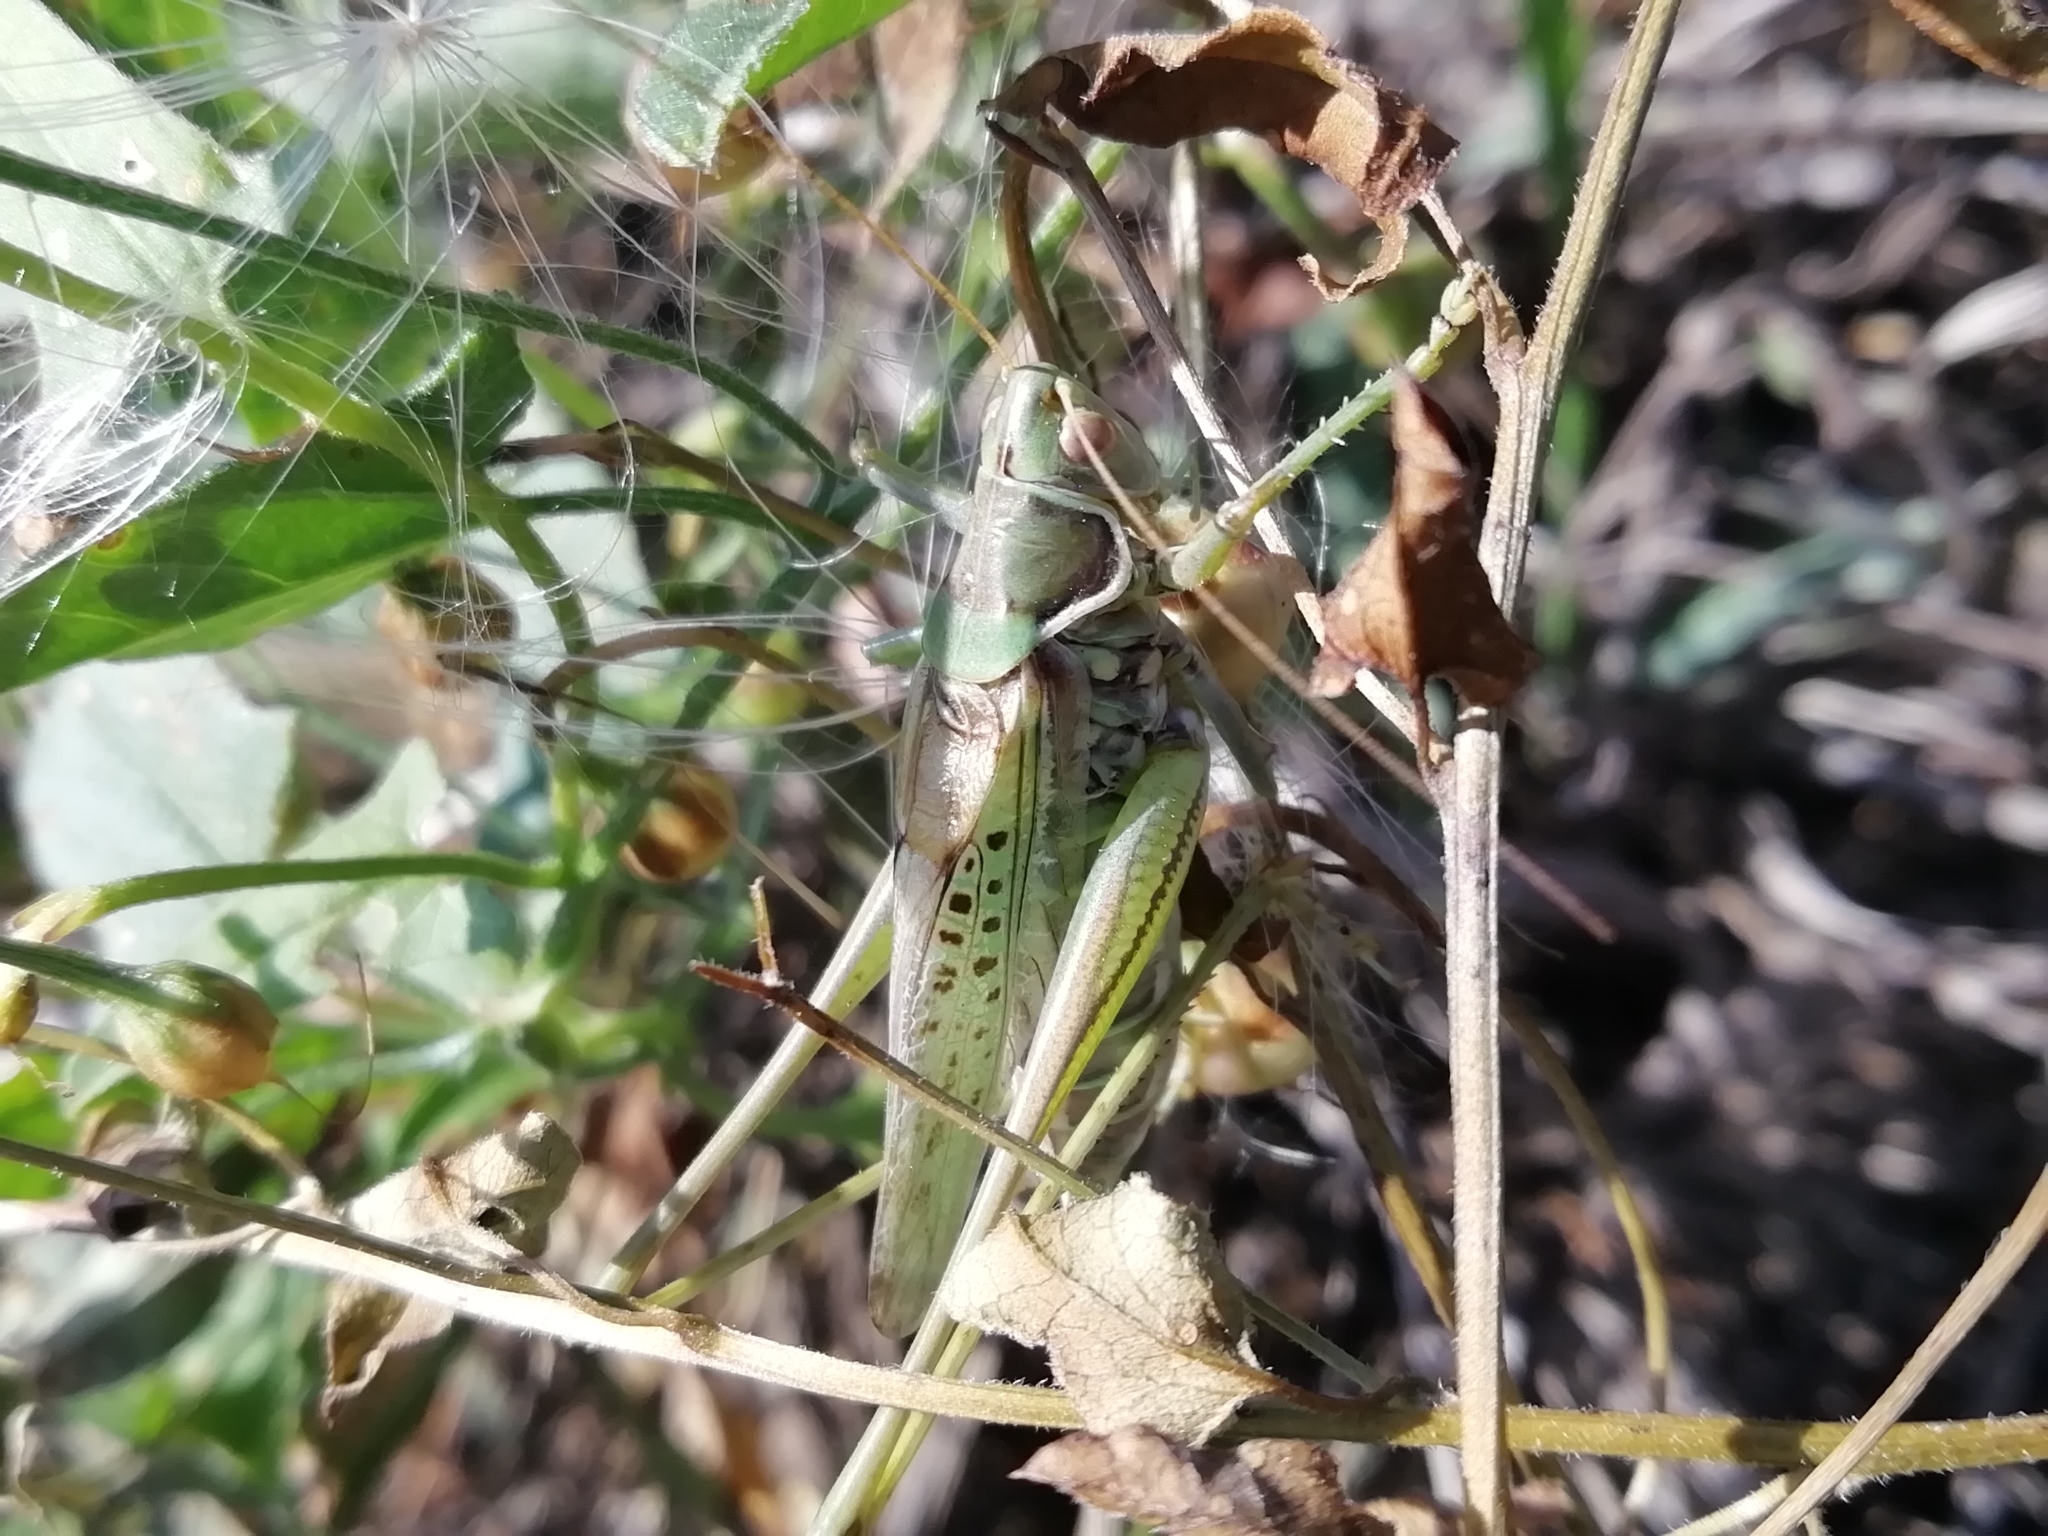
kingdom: Animalia
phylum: Arthropoda
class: Insecta
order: Orthoptera
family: Tettigoniidae
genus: Gampsocleis
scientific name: Gampsocleis glabra
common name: Heath bushcricket
